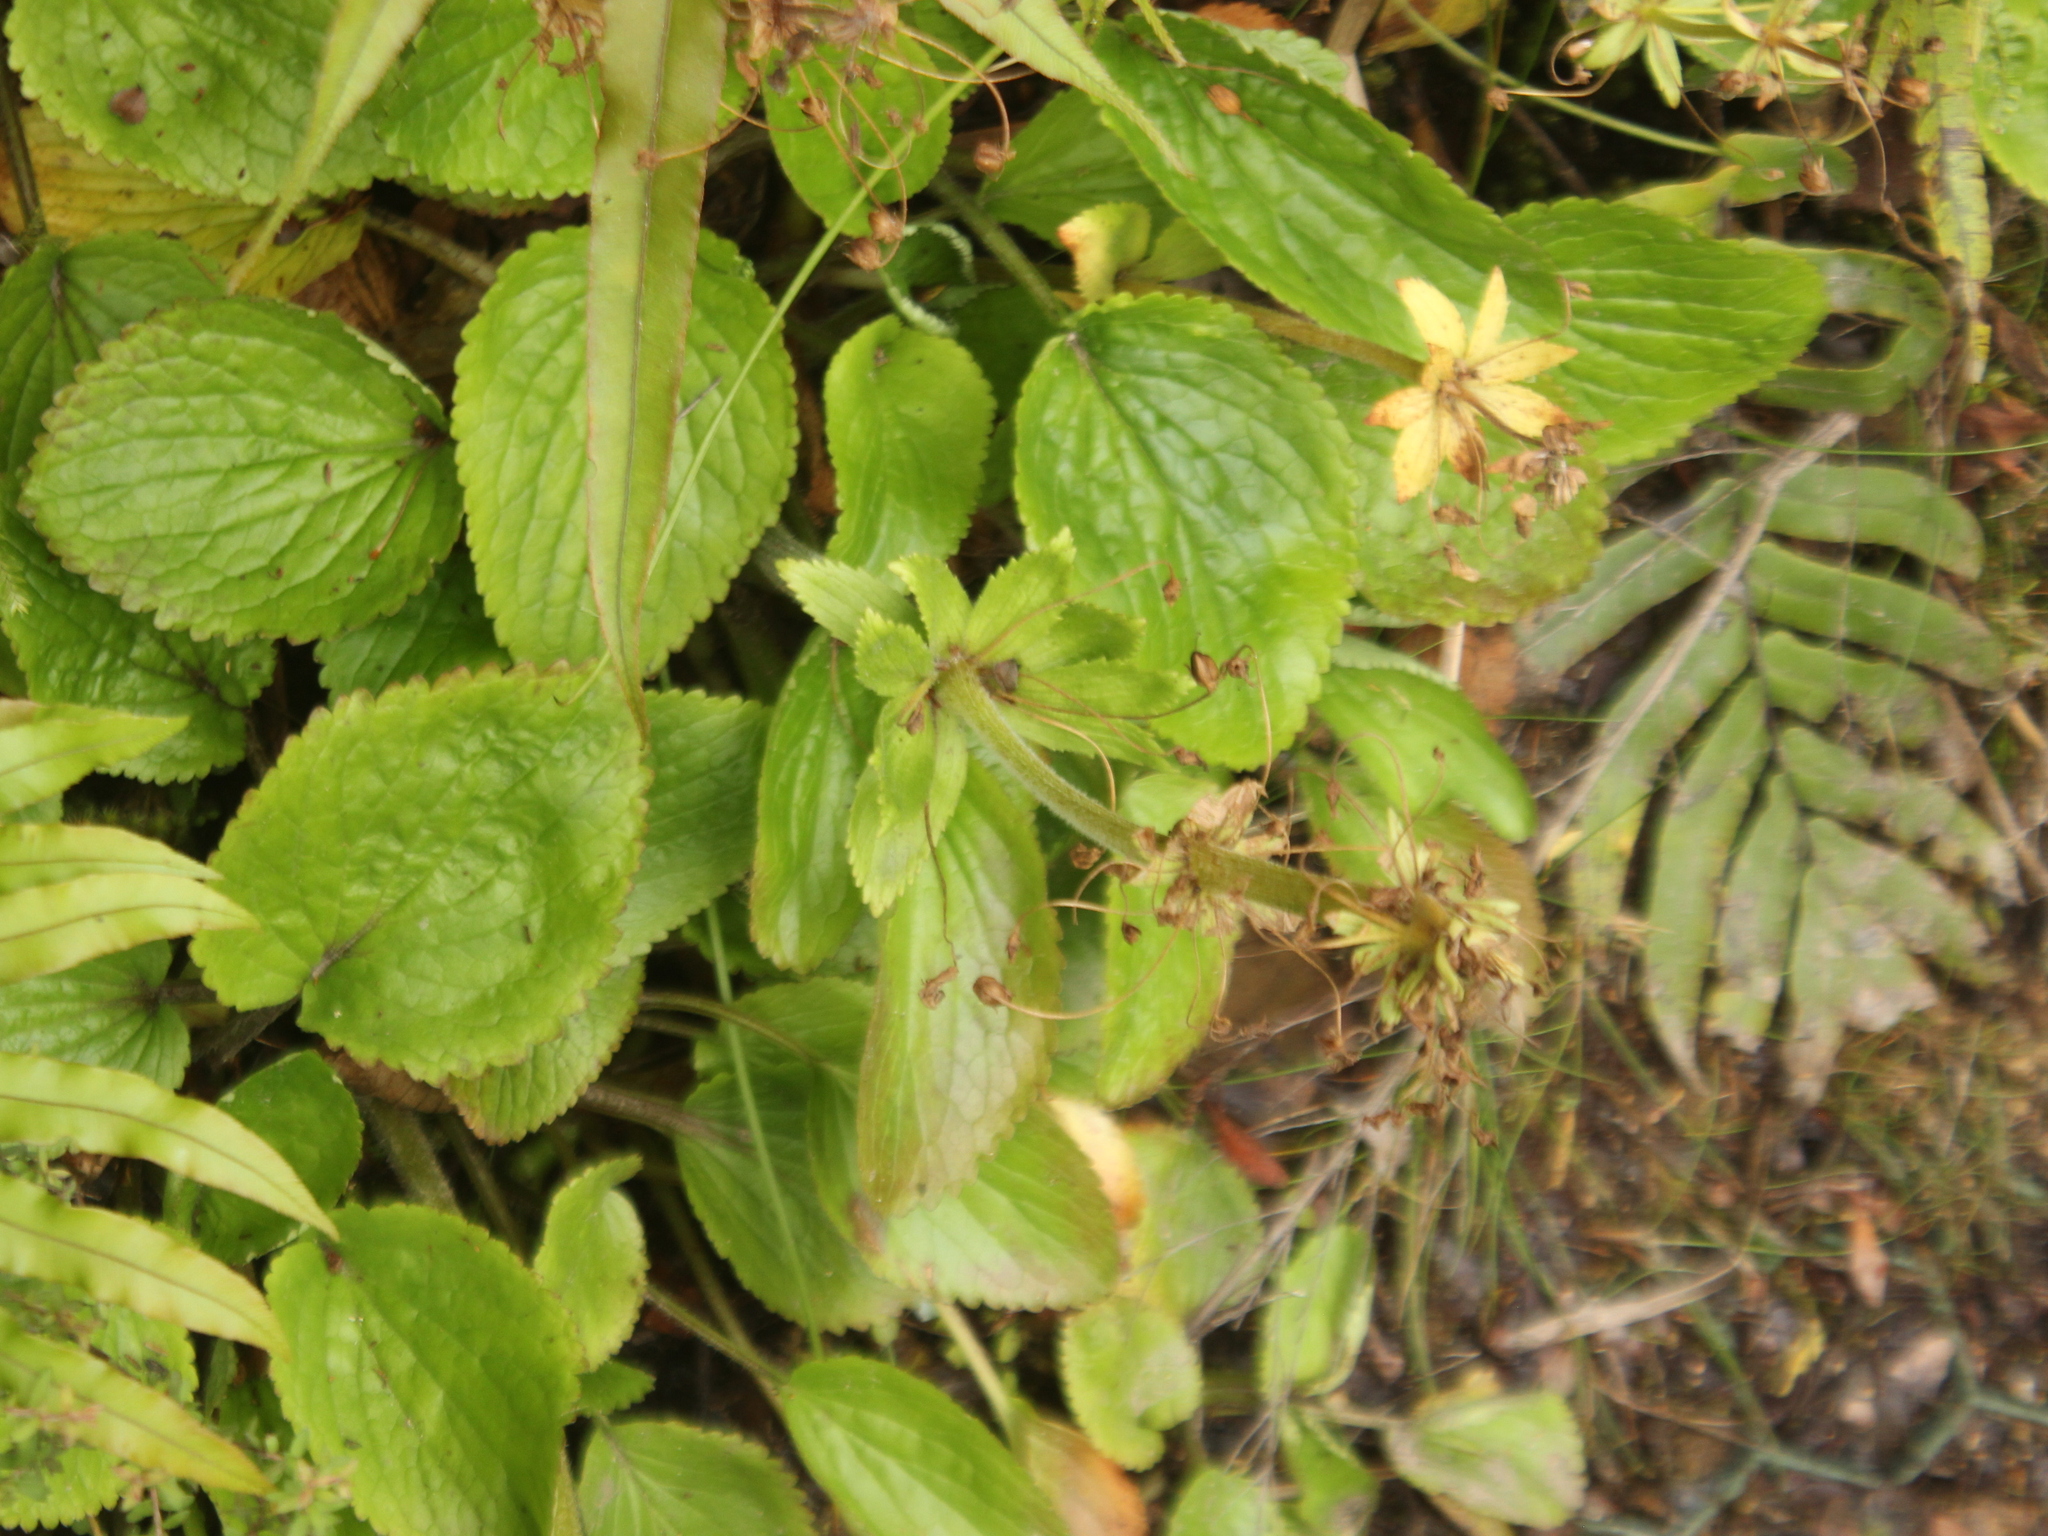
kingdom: Plantae
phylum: Tracheophyta
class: Magnoliopsida
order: Lamiales
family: Plantaginaceae
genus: Ourisia
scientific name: Ourisia macrophylla
